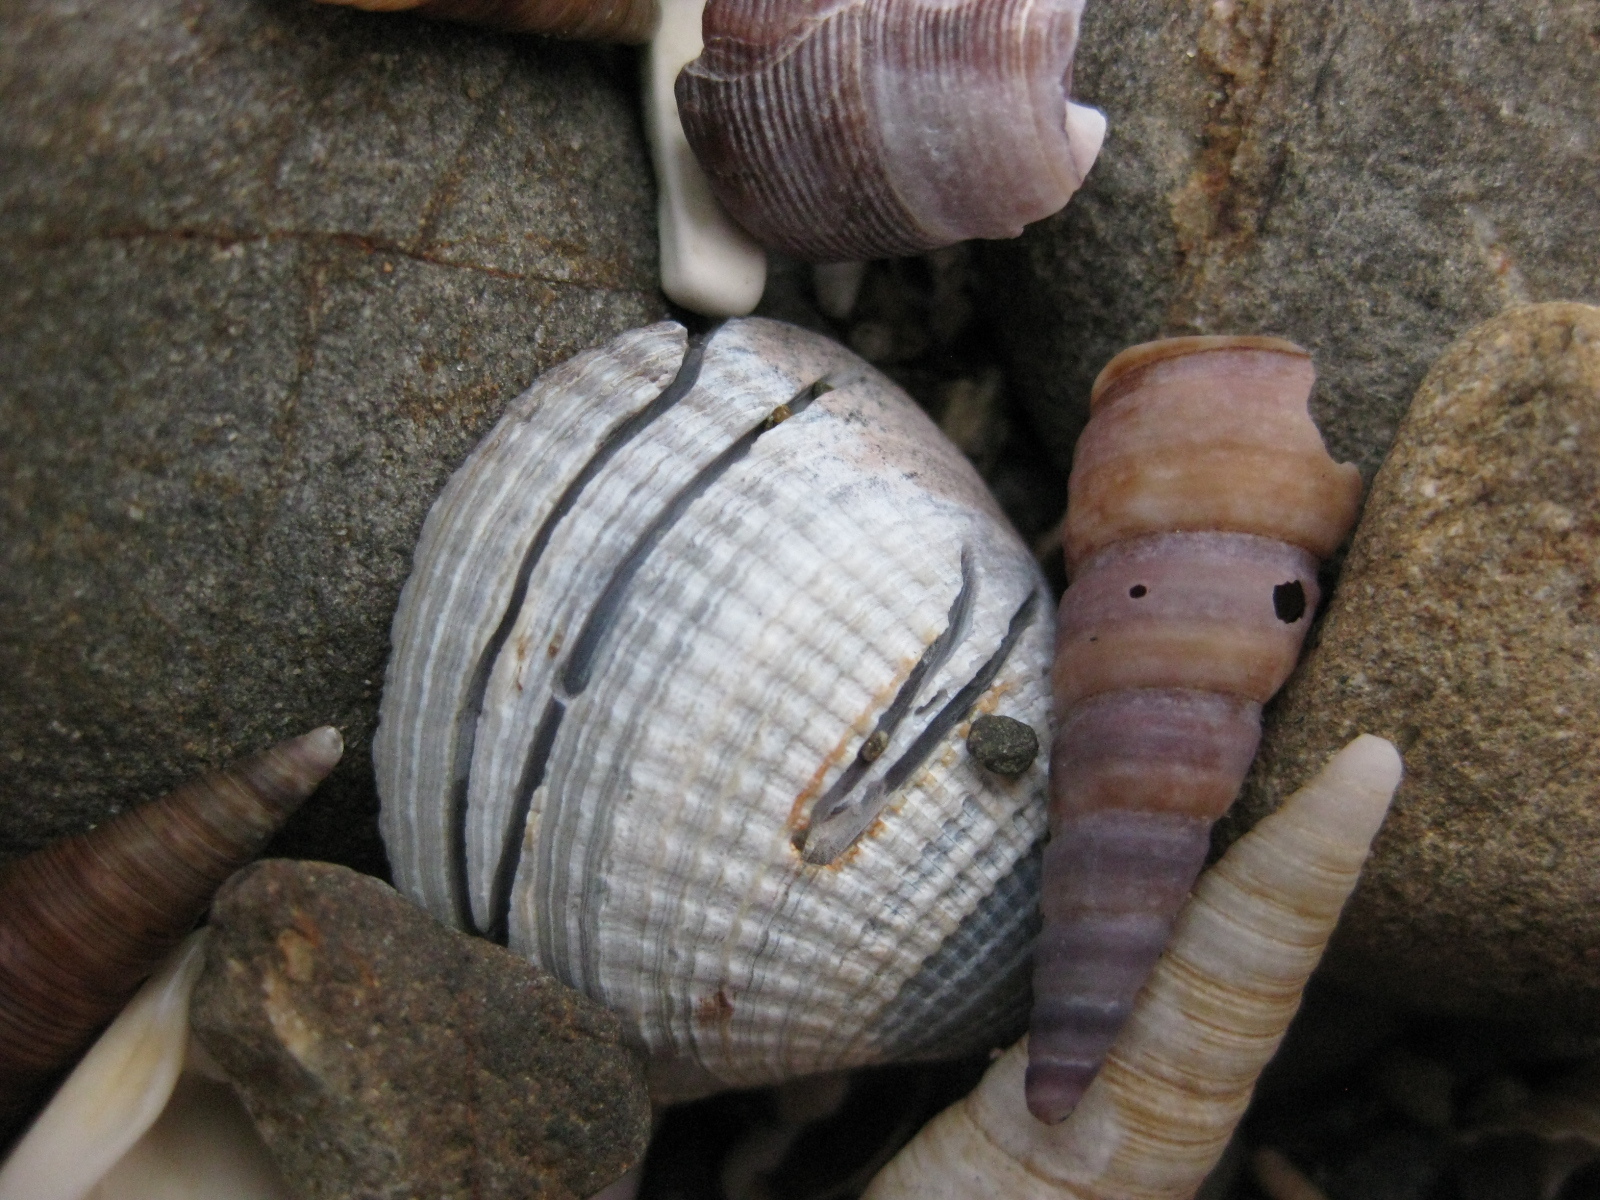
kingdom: Animalia
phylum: Annelida
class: Polychaeta
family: Spionidae
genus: Boccardia
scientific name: Boccardia acus
